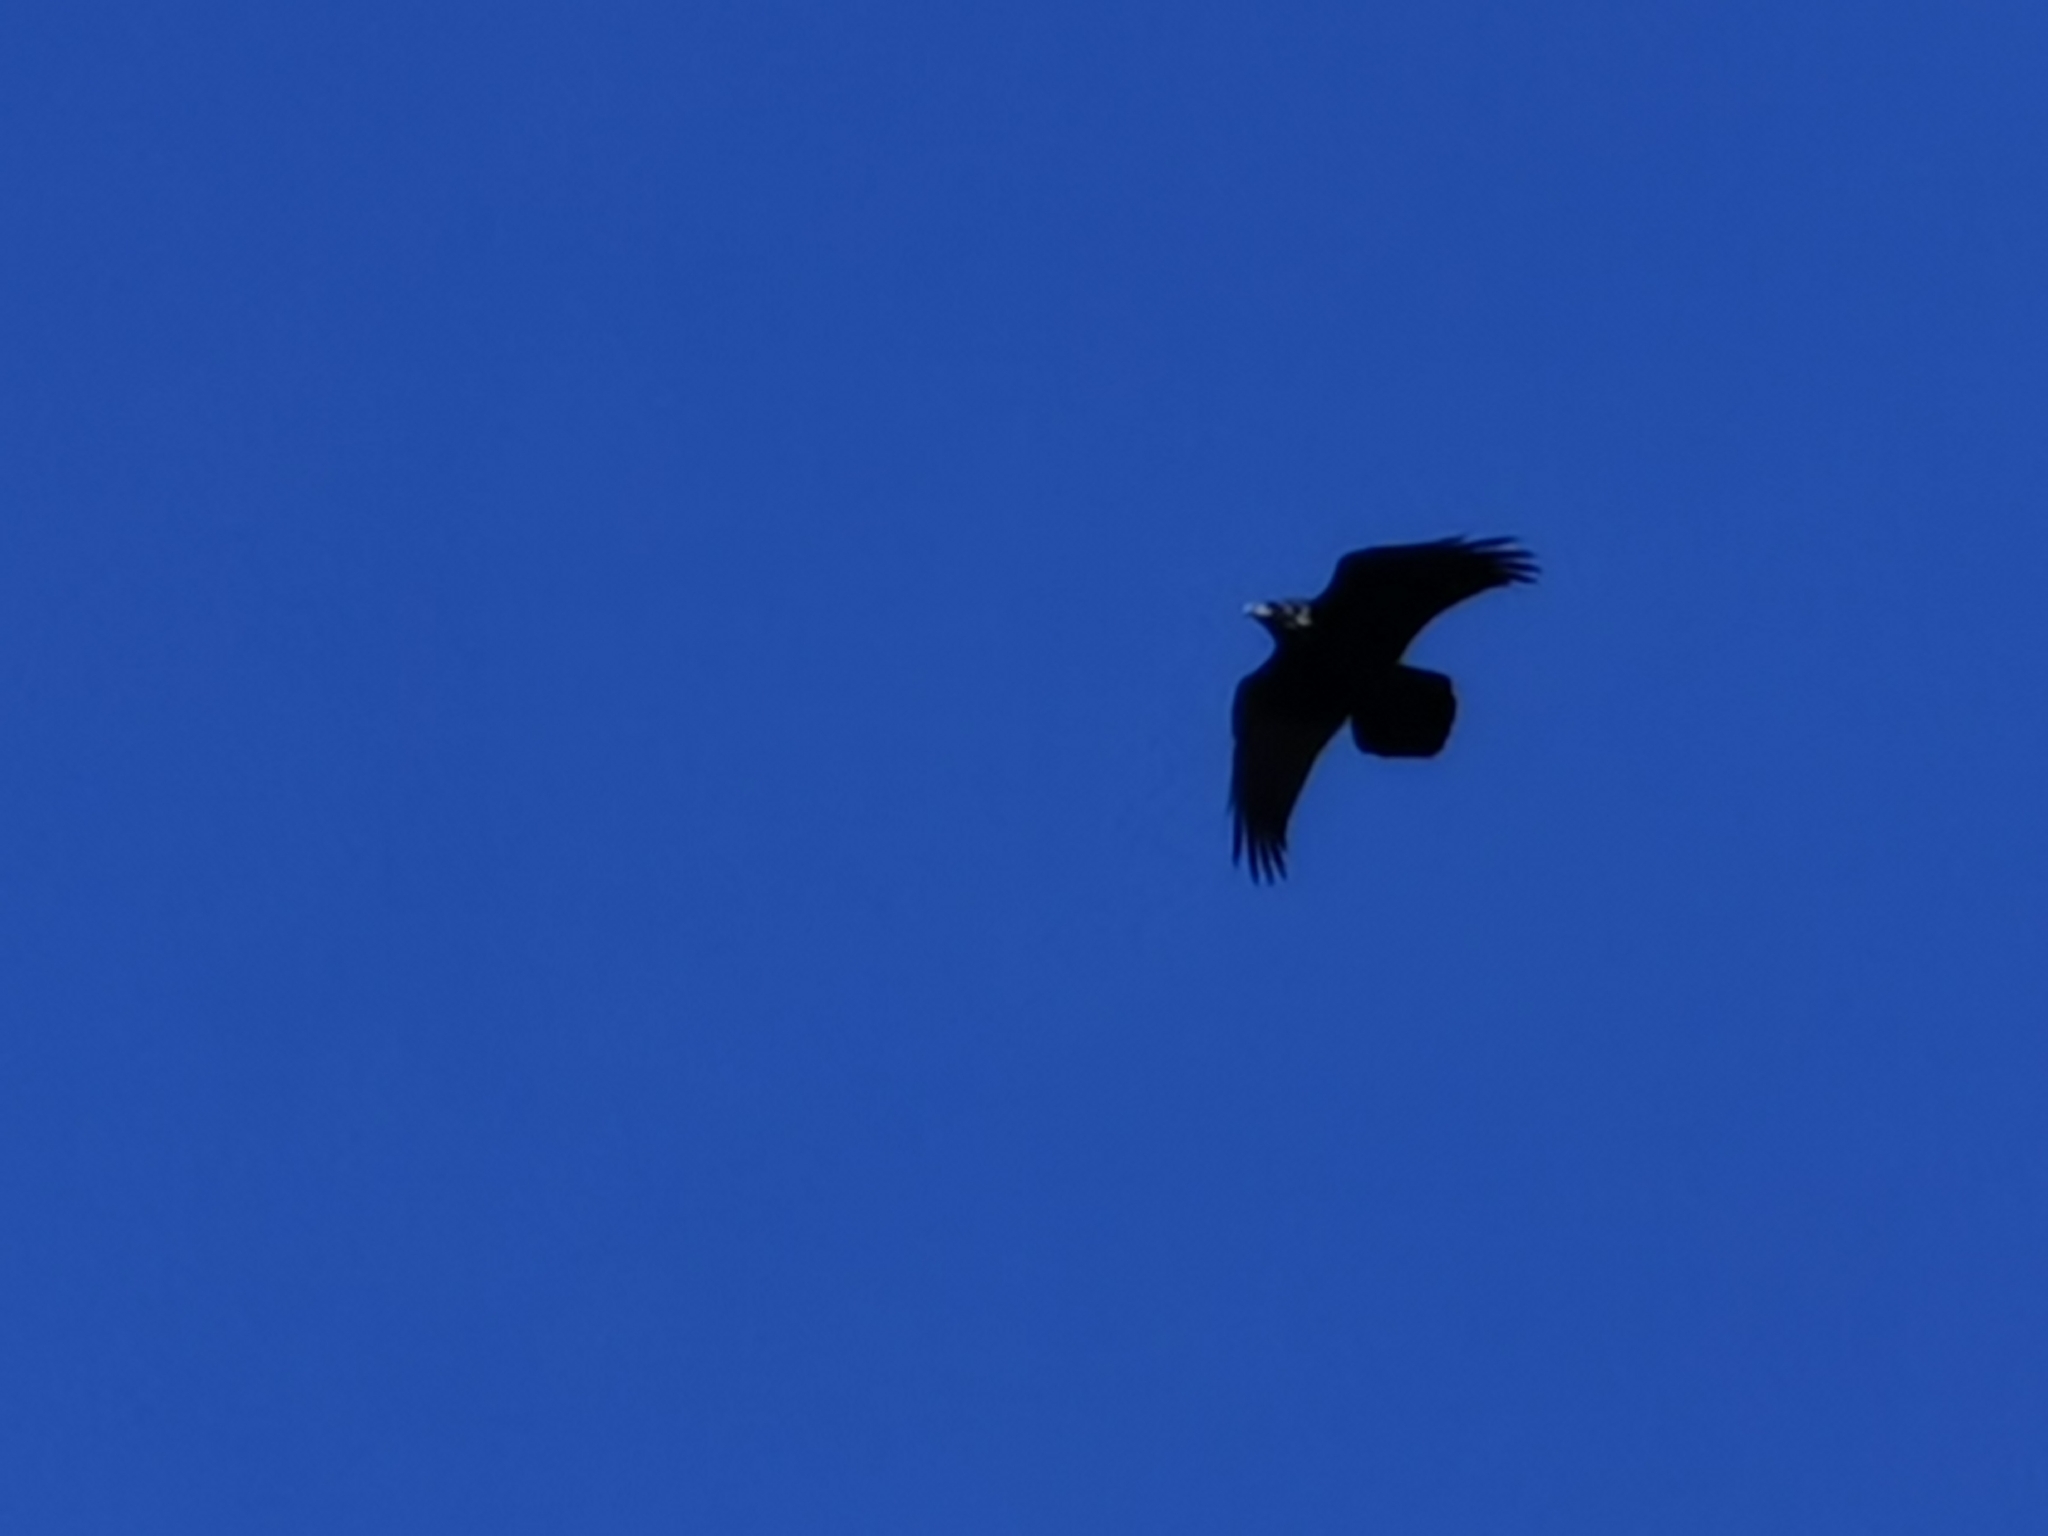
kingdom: Animalia
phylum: Chordata
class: Aves
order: Passeriformes
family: Corvidae
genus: Corvus
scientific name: Corvus corax
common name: Common raven
